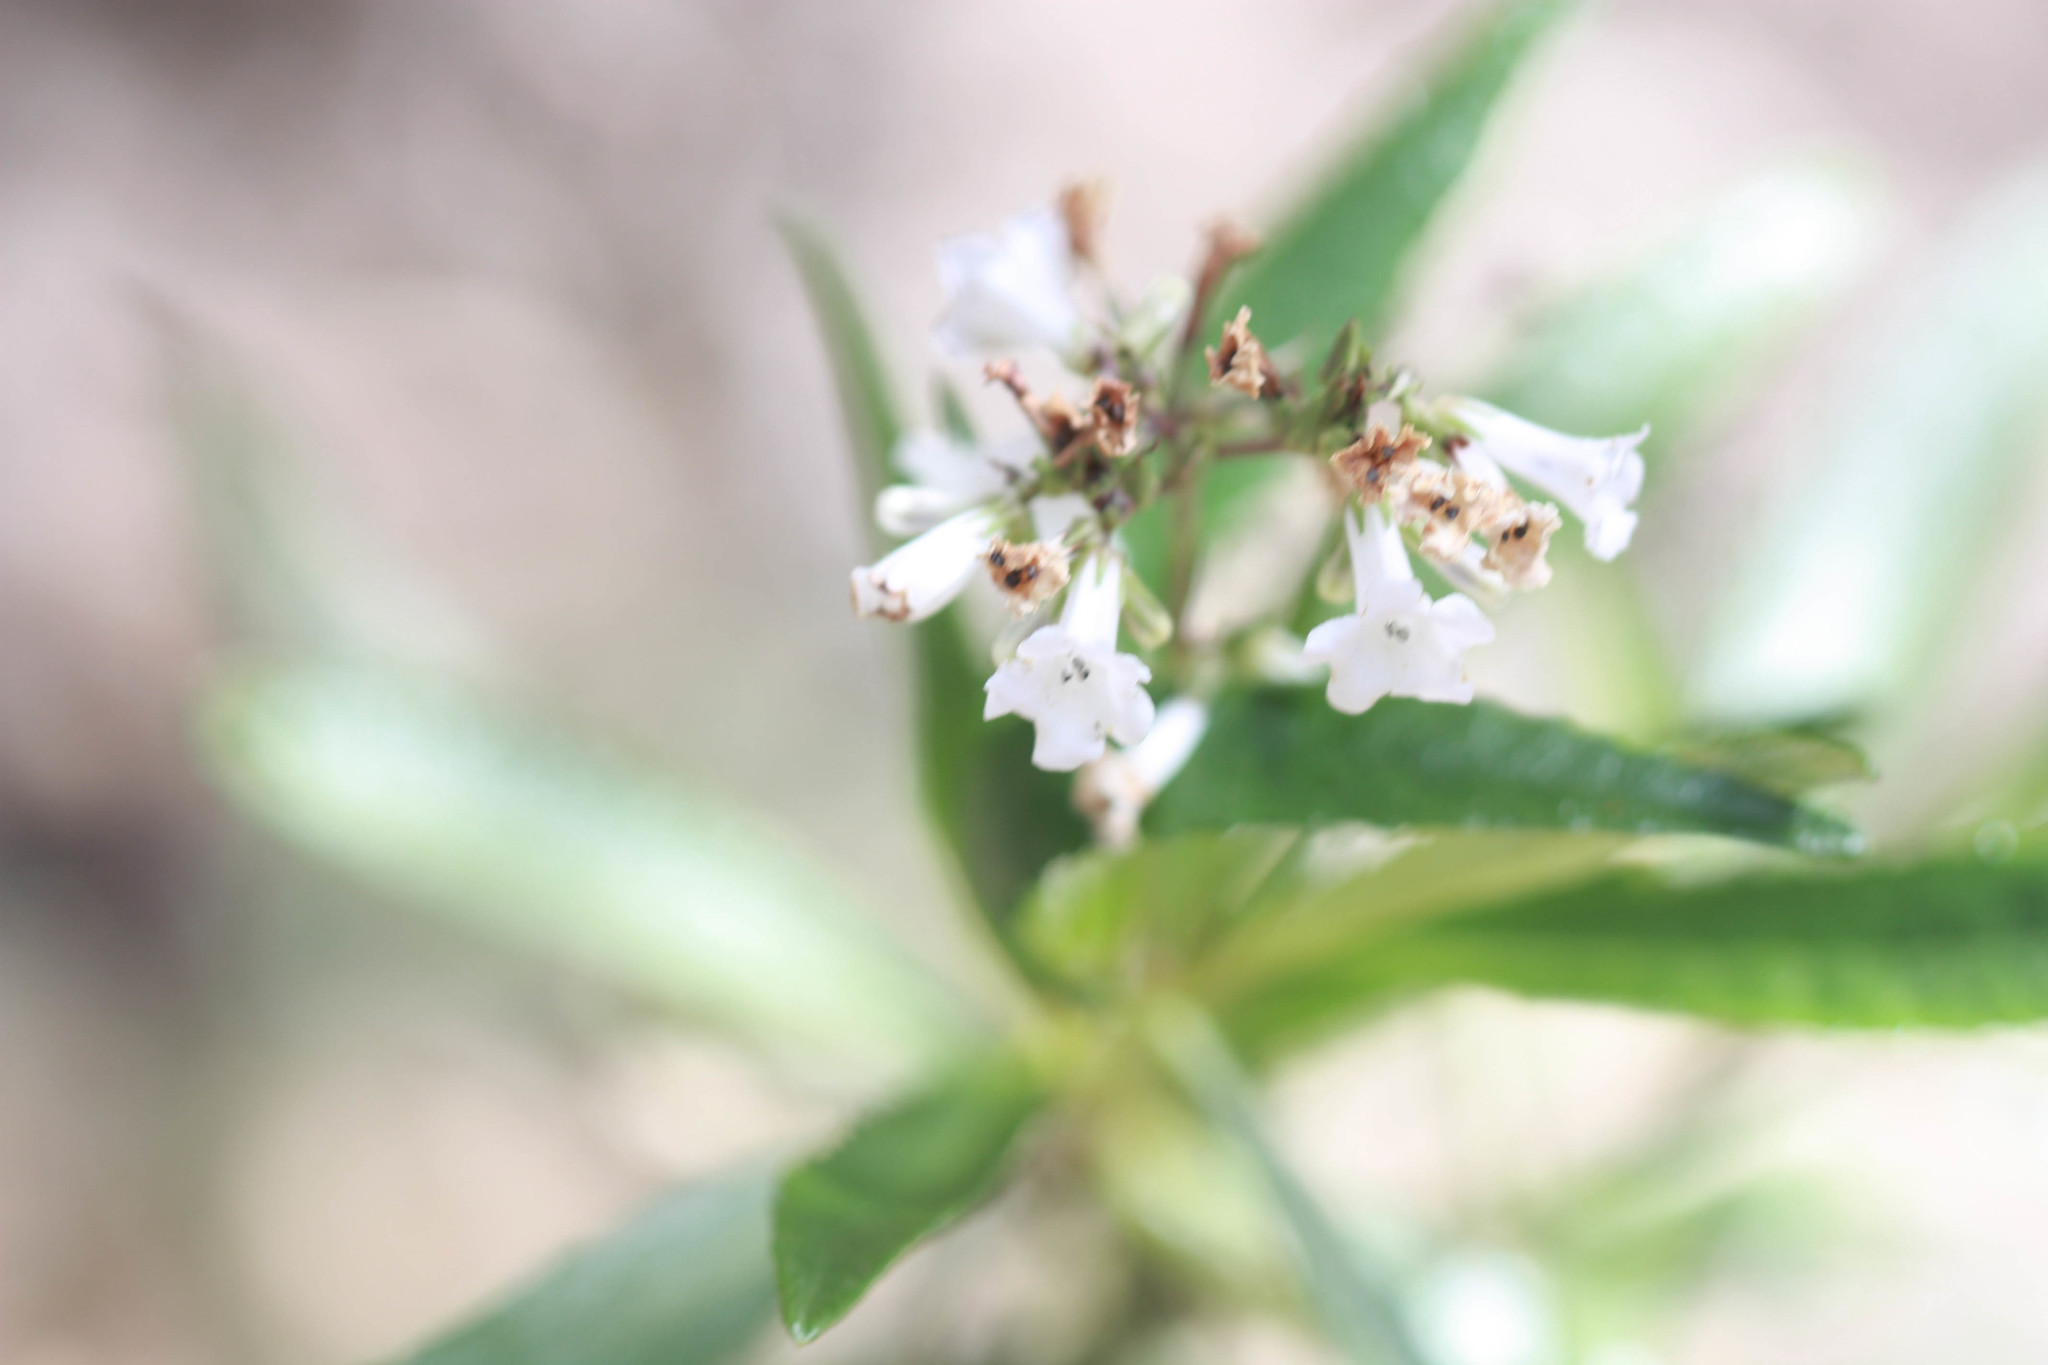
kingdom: Plantae
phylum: Tracheophyta
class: Magnoliopsida
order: Boraginales
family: Namaceae
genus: Eriodictyon
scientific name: Eriodictyon californicum
